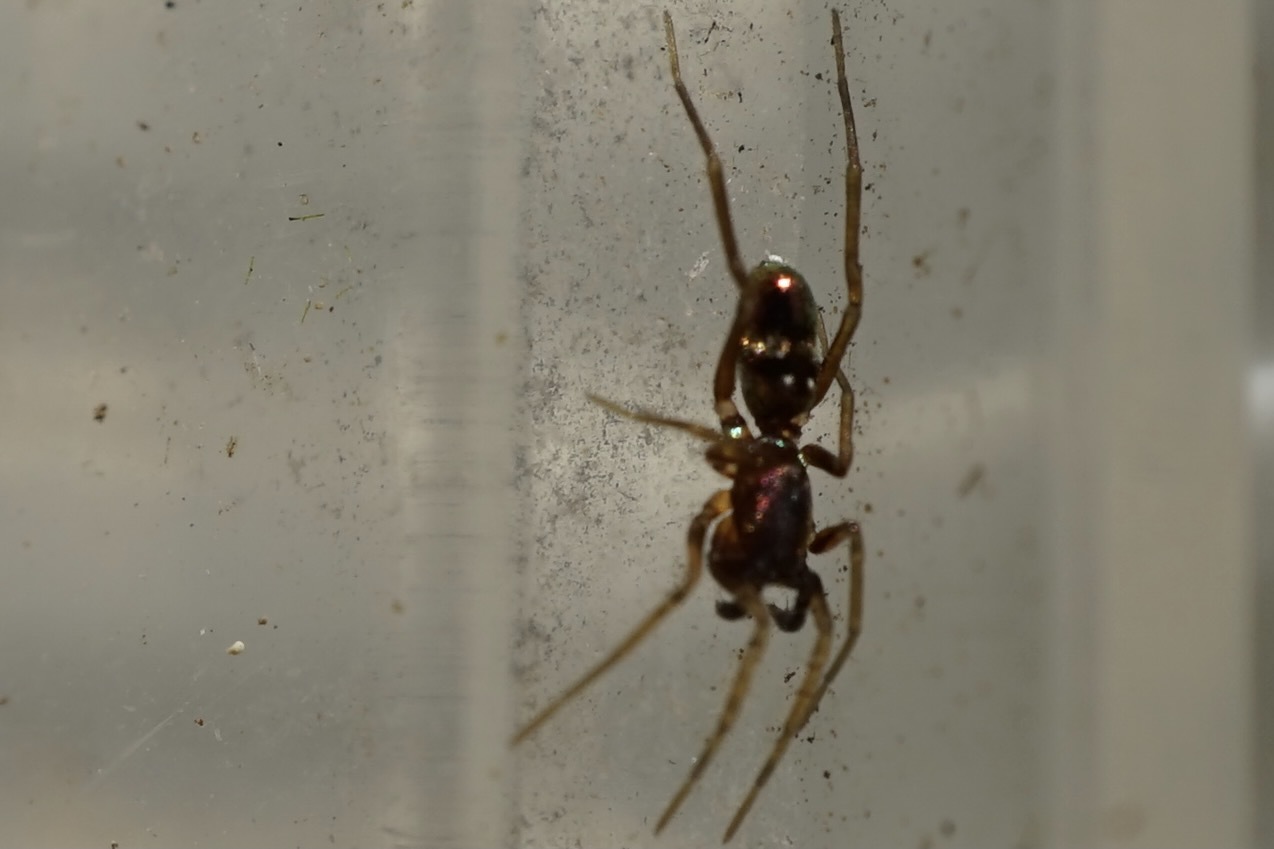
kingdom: Animalia
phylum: Arthropoda
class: Arachnida
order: Araneae
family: Gnaphosidae
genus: Micaria
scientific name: Micaria dives
